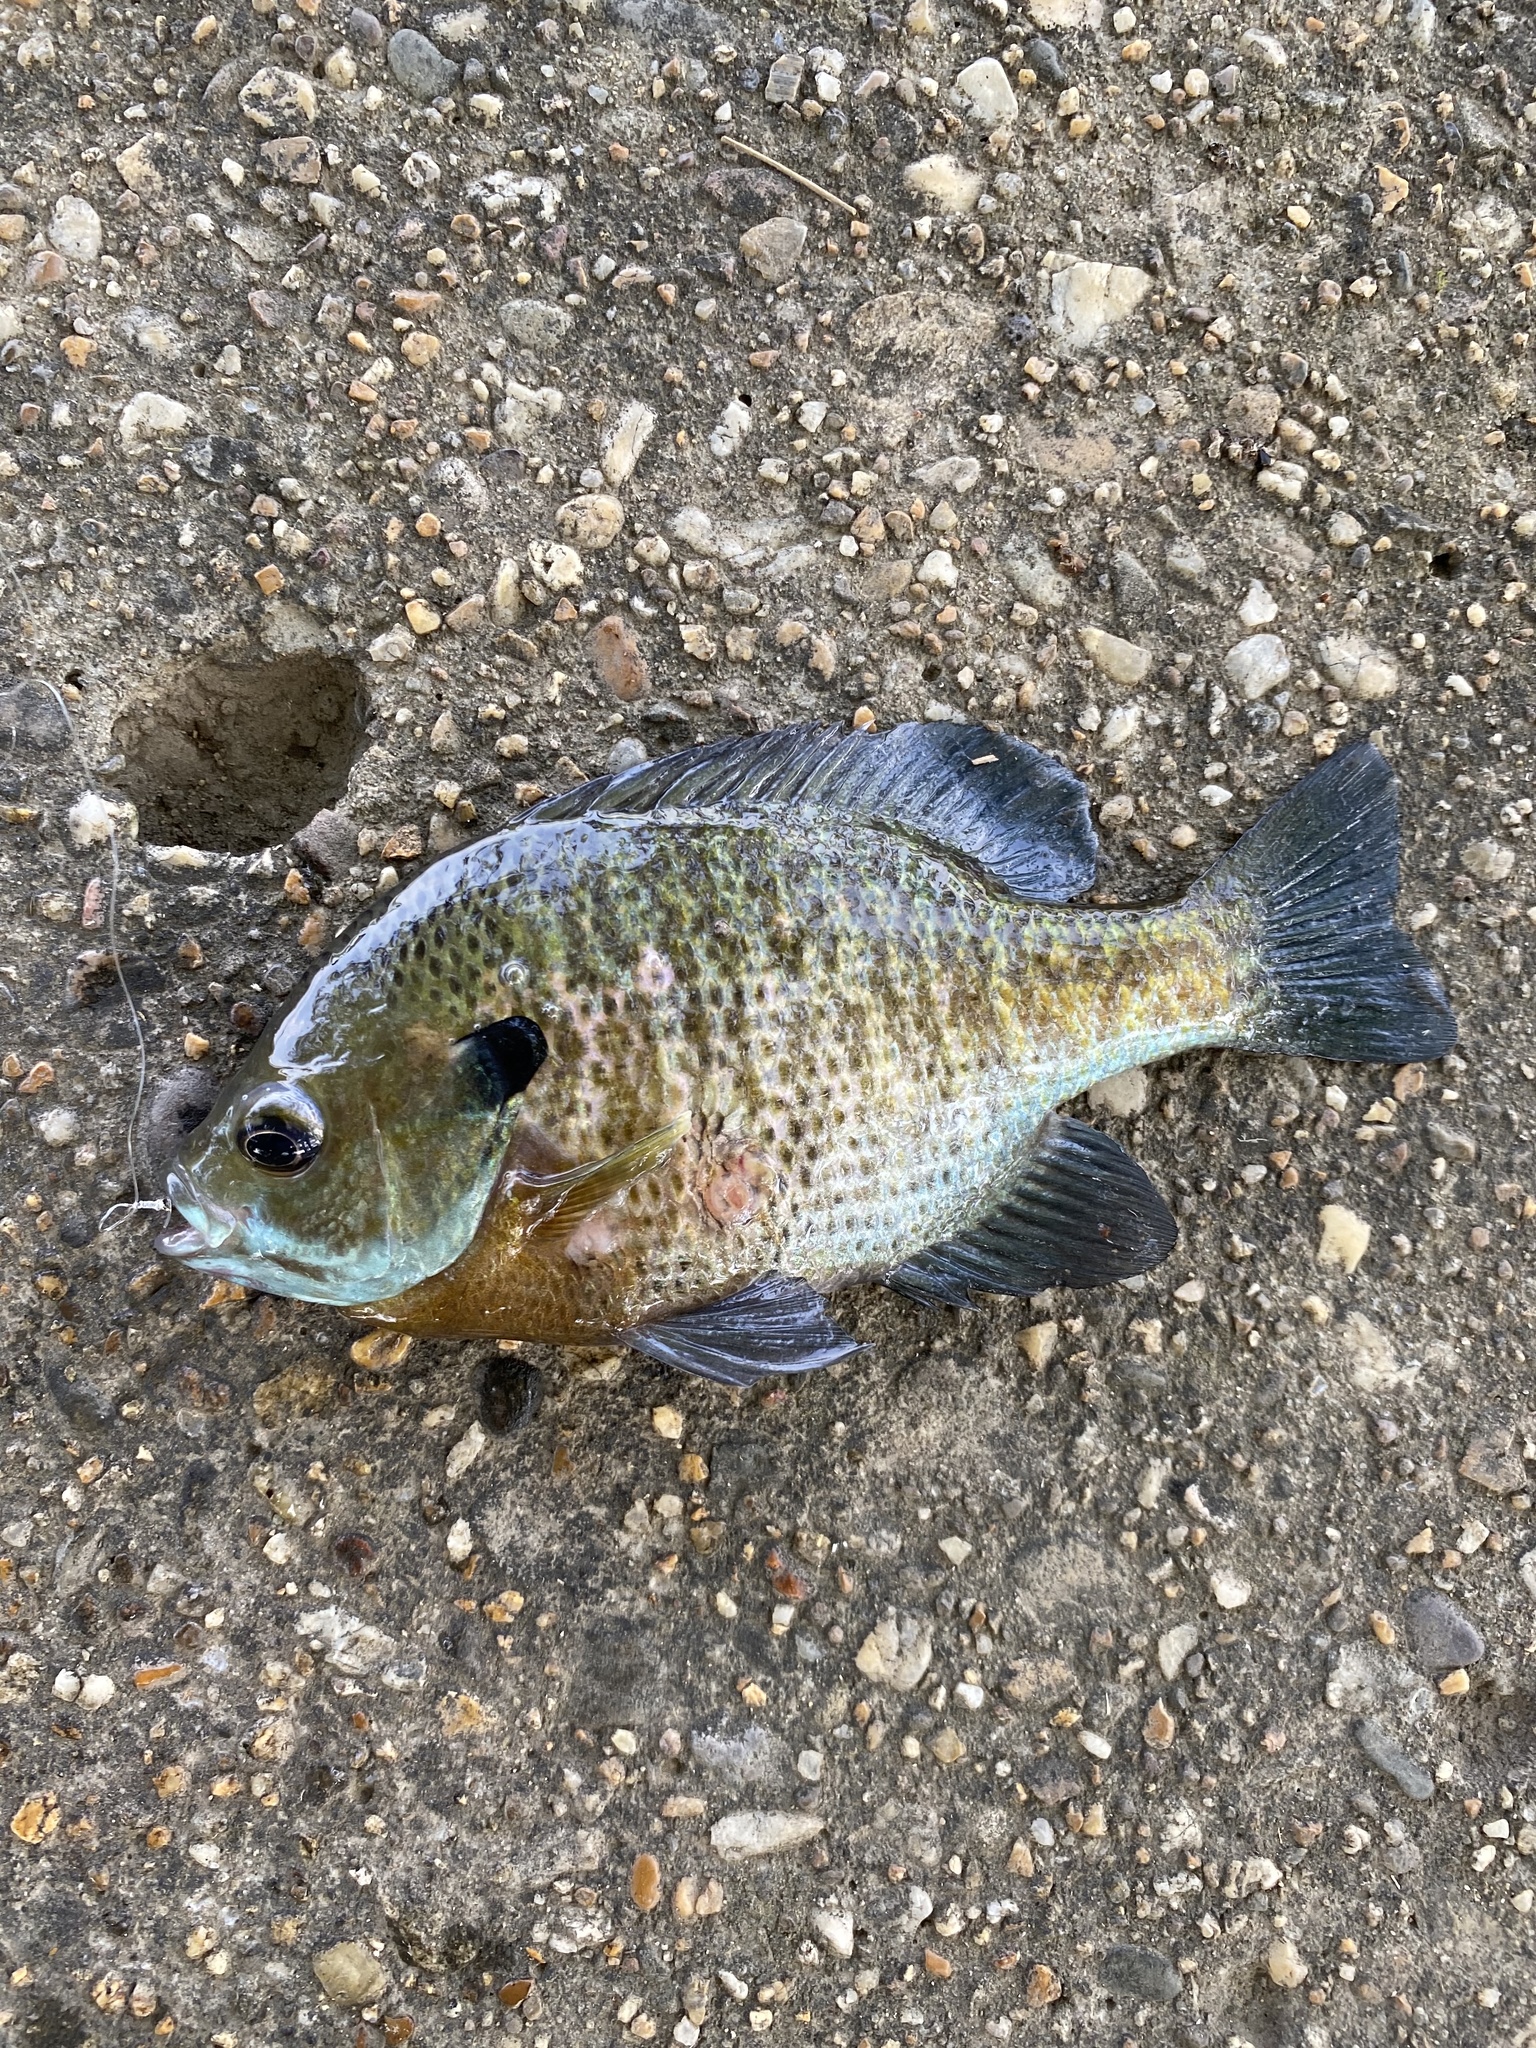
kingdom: Animalia
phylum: Chordata
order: Perciformes
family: Centrarchidae
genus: Lepomis
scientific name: Lepomis macrochirus
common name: Bluegill
